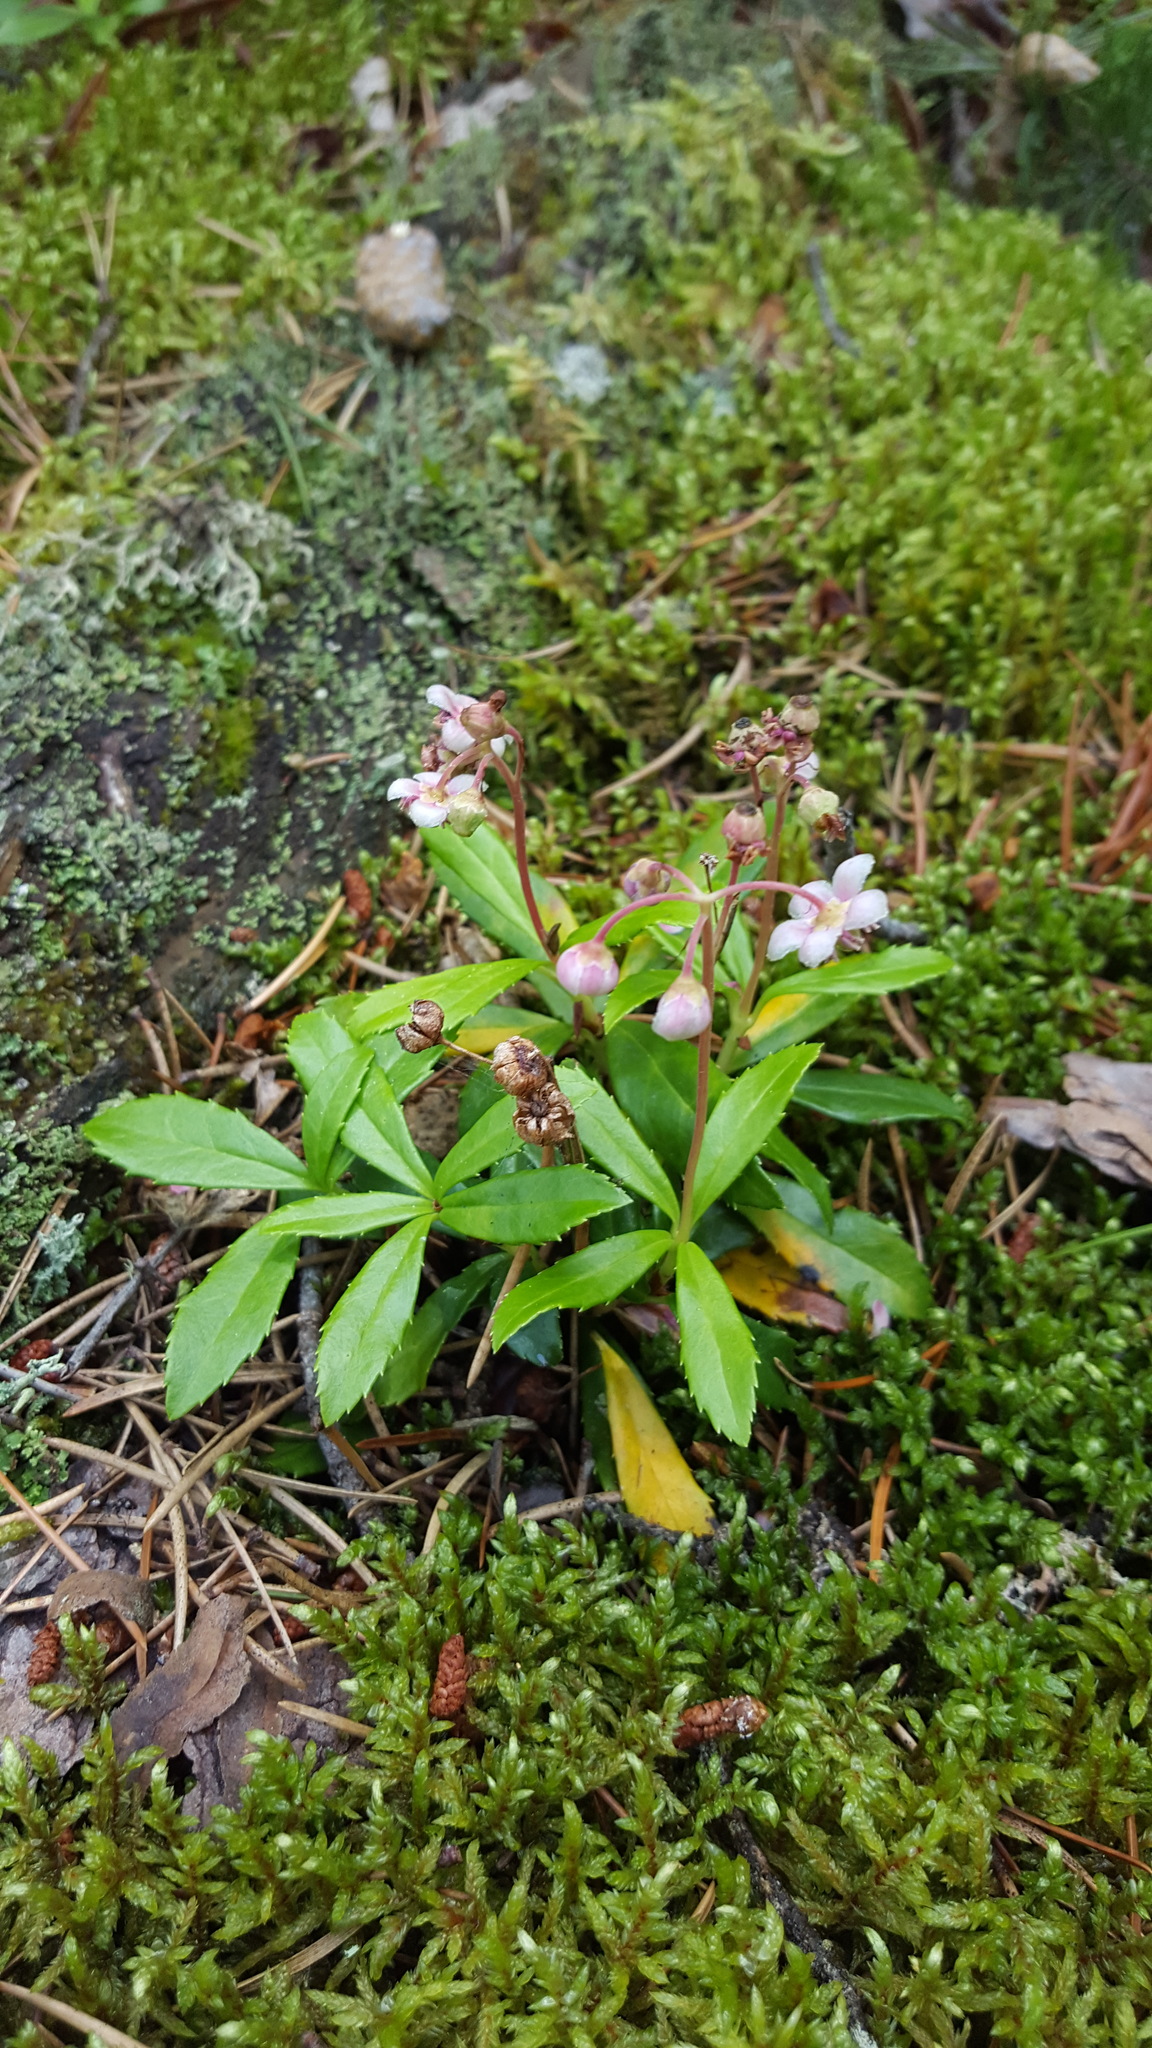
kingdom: Plantae
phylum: Tracheophyta
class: Magnoliopsida
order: Ericales
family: Ericaceae
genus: Chimaphila
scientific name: Chimaphila umbellata
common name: Pipsissewa
